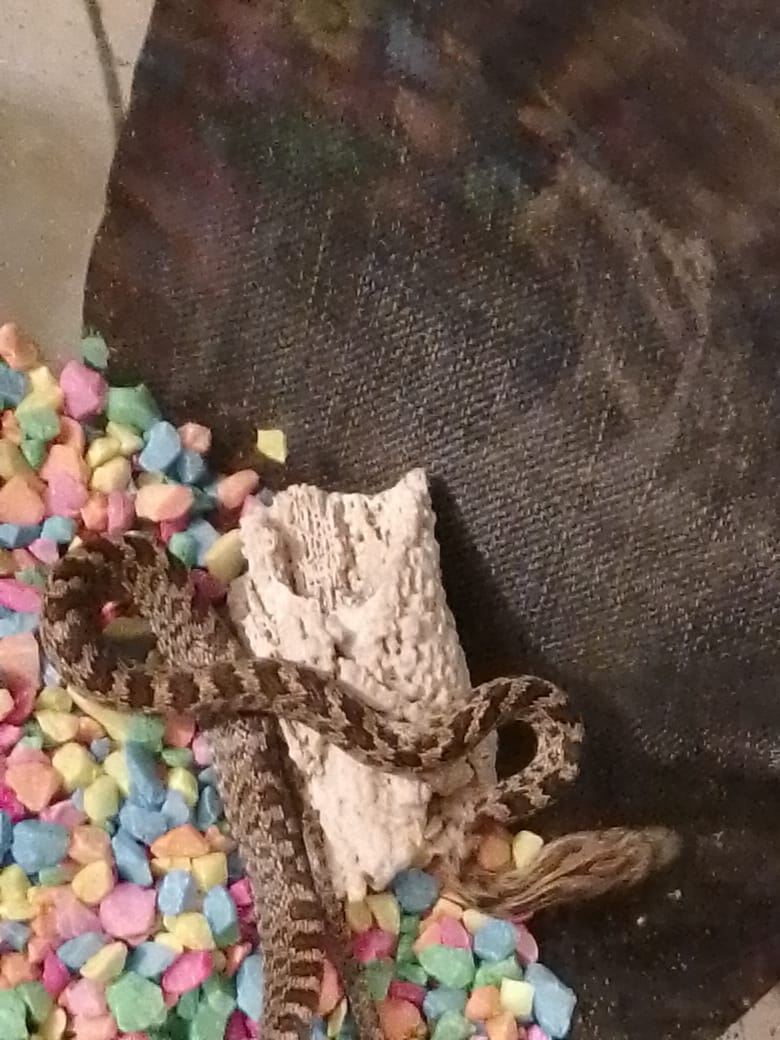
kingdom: Animalia
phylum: Chordata
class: Squamata
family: Colubridae
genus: Senticolis
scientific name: Senticolis triaspis
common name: Green rat snake
